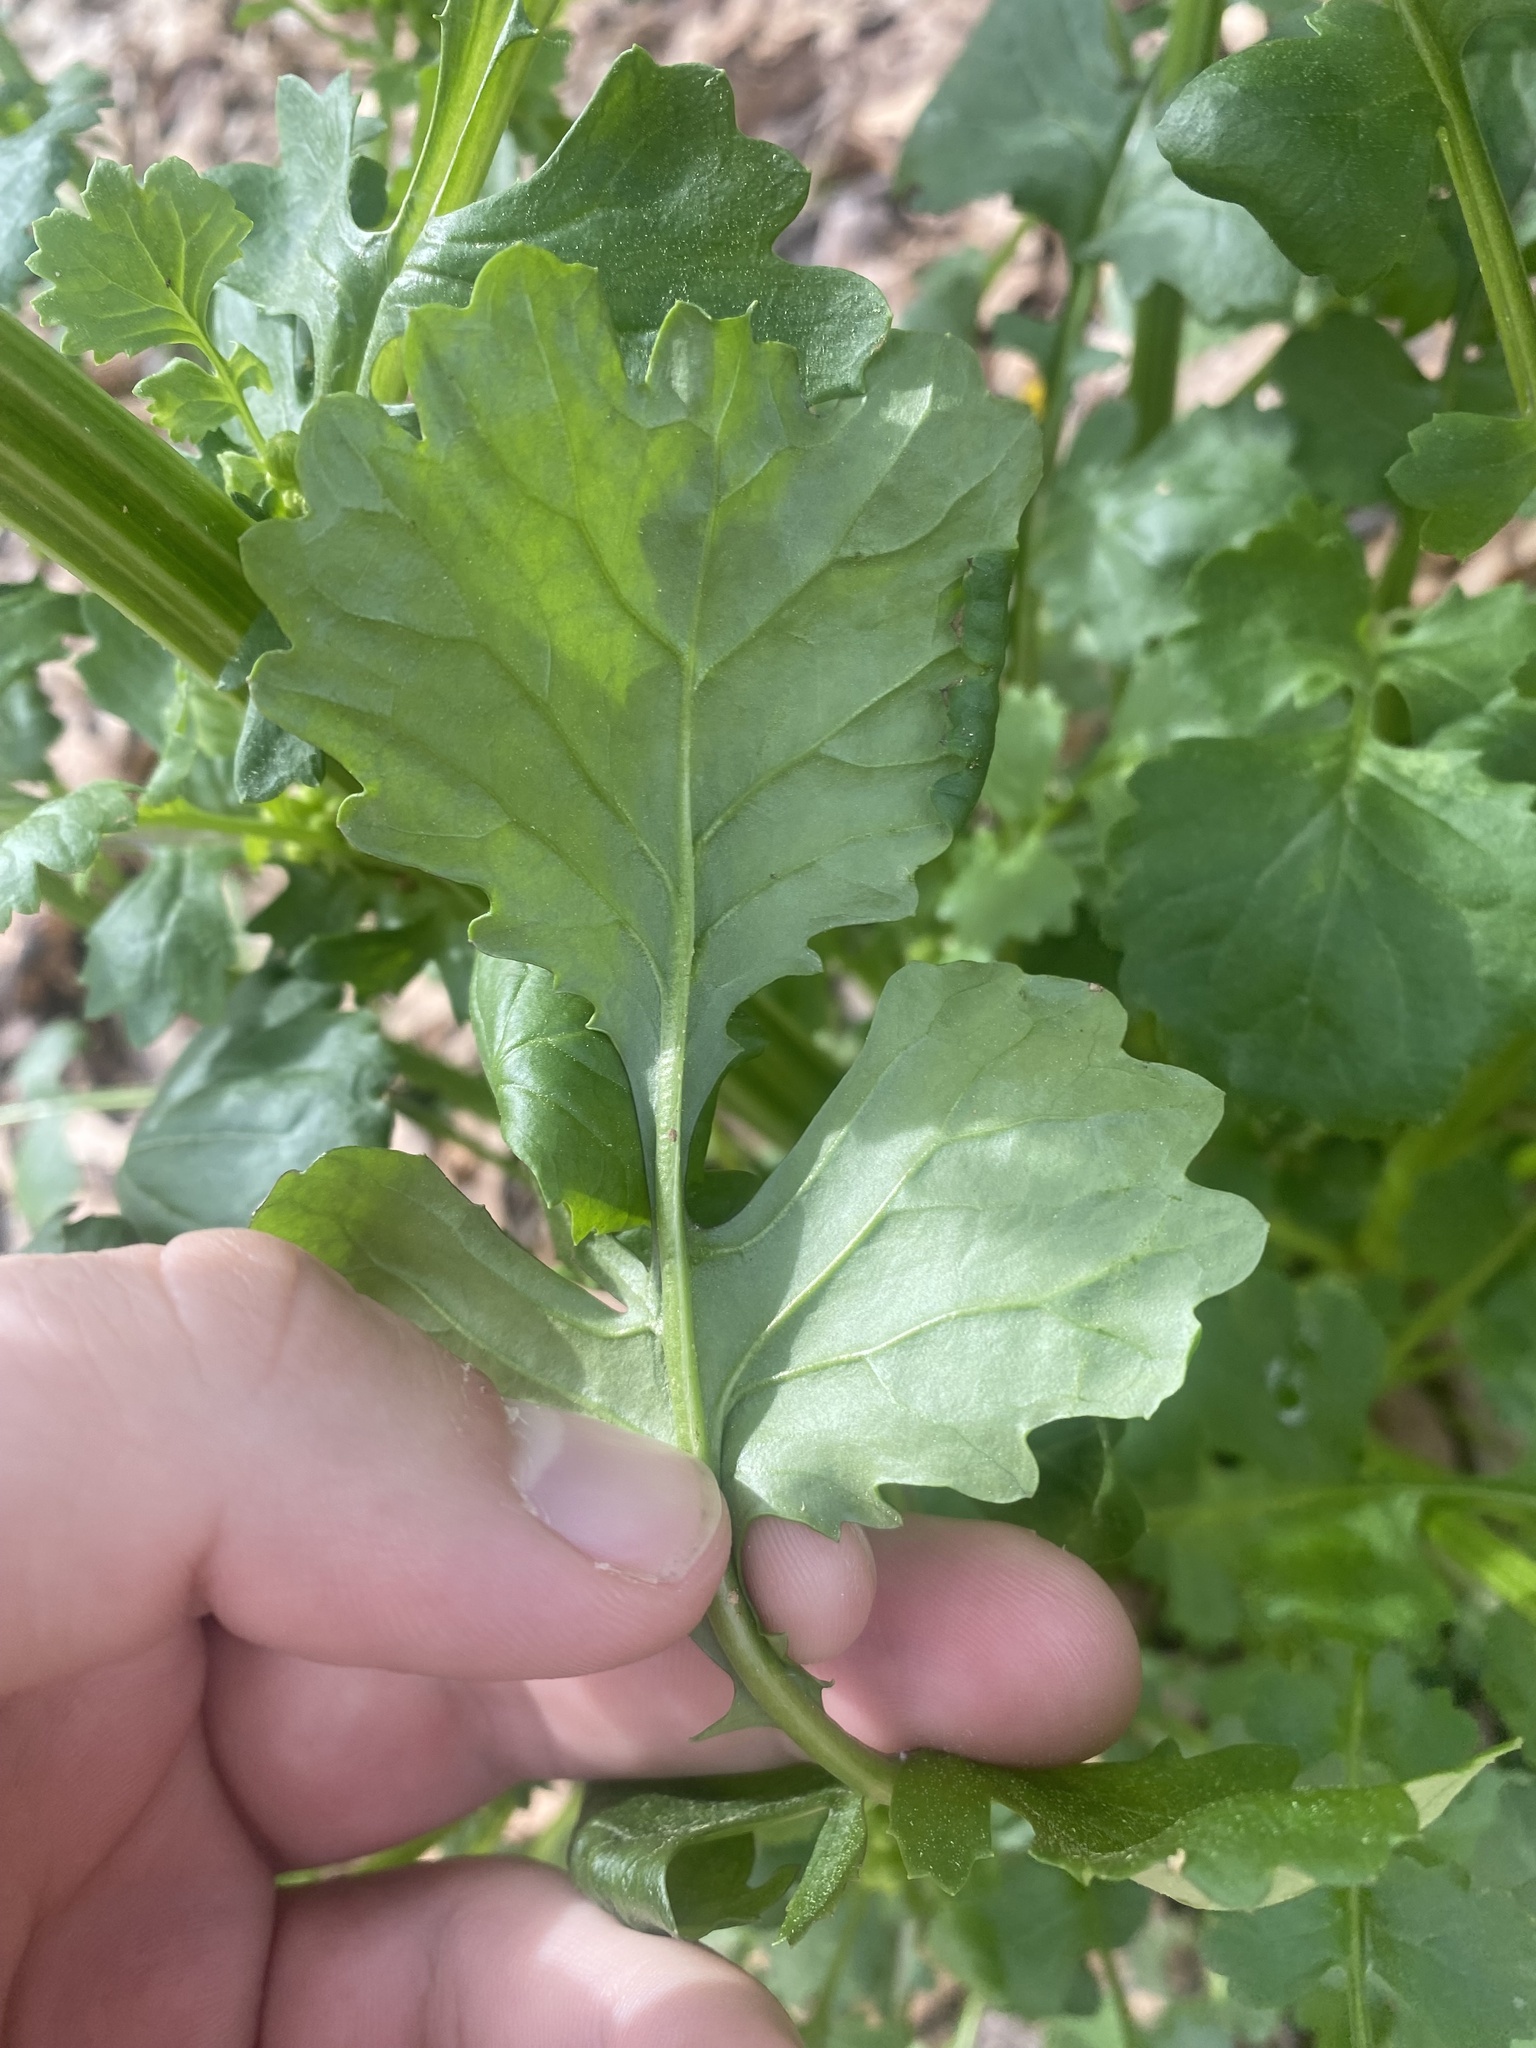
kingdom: Plantae
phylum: Tracheophyta
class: Magnoliopsida
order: Asterales
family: Asteraceae
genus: Packera
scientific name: Packera glabella
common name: Butterweed
